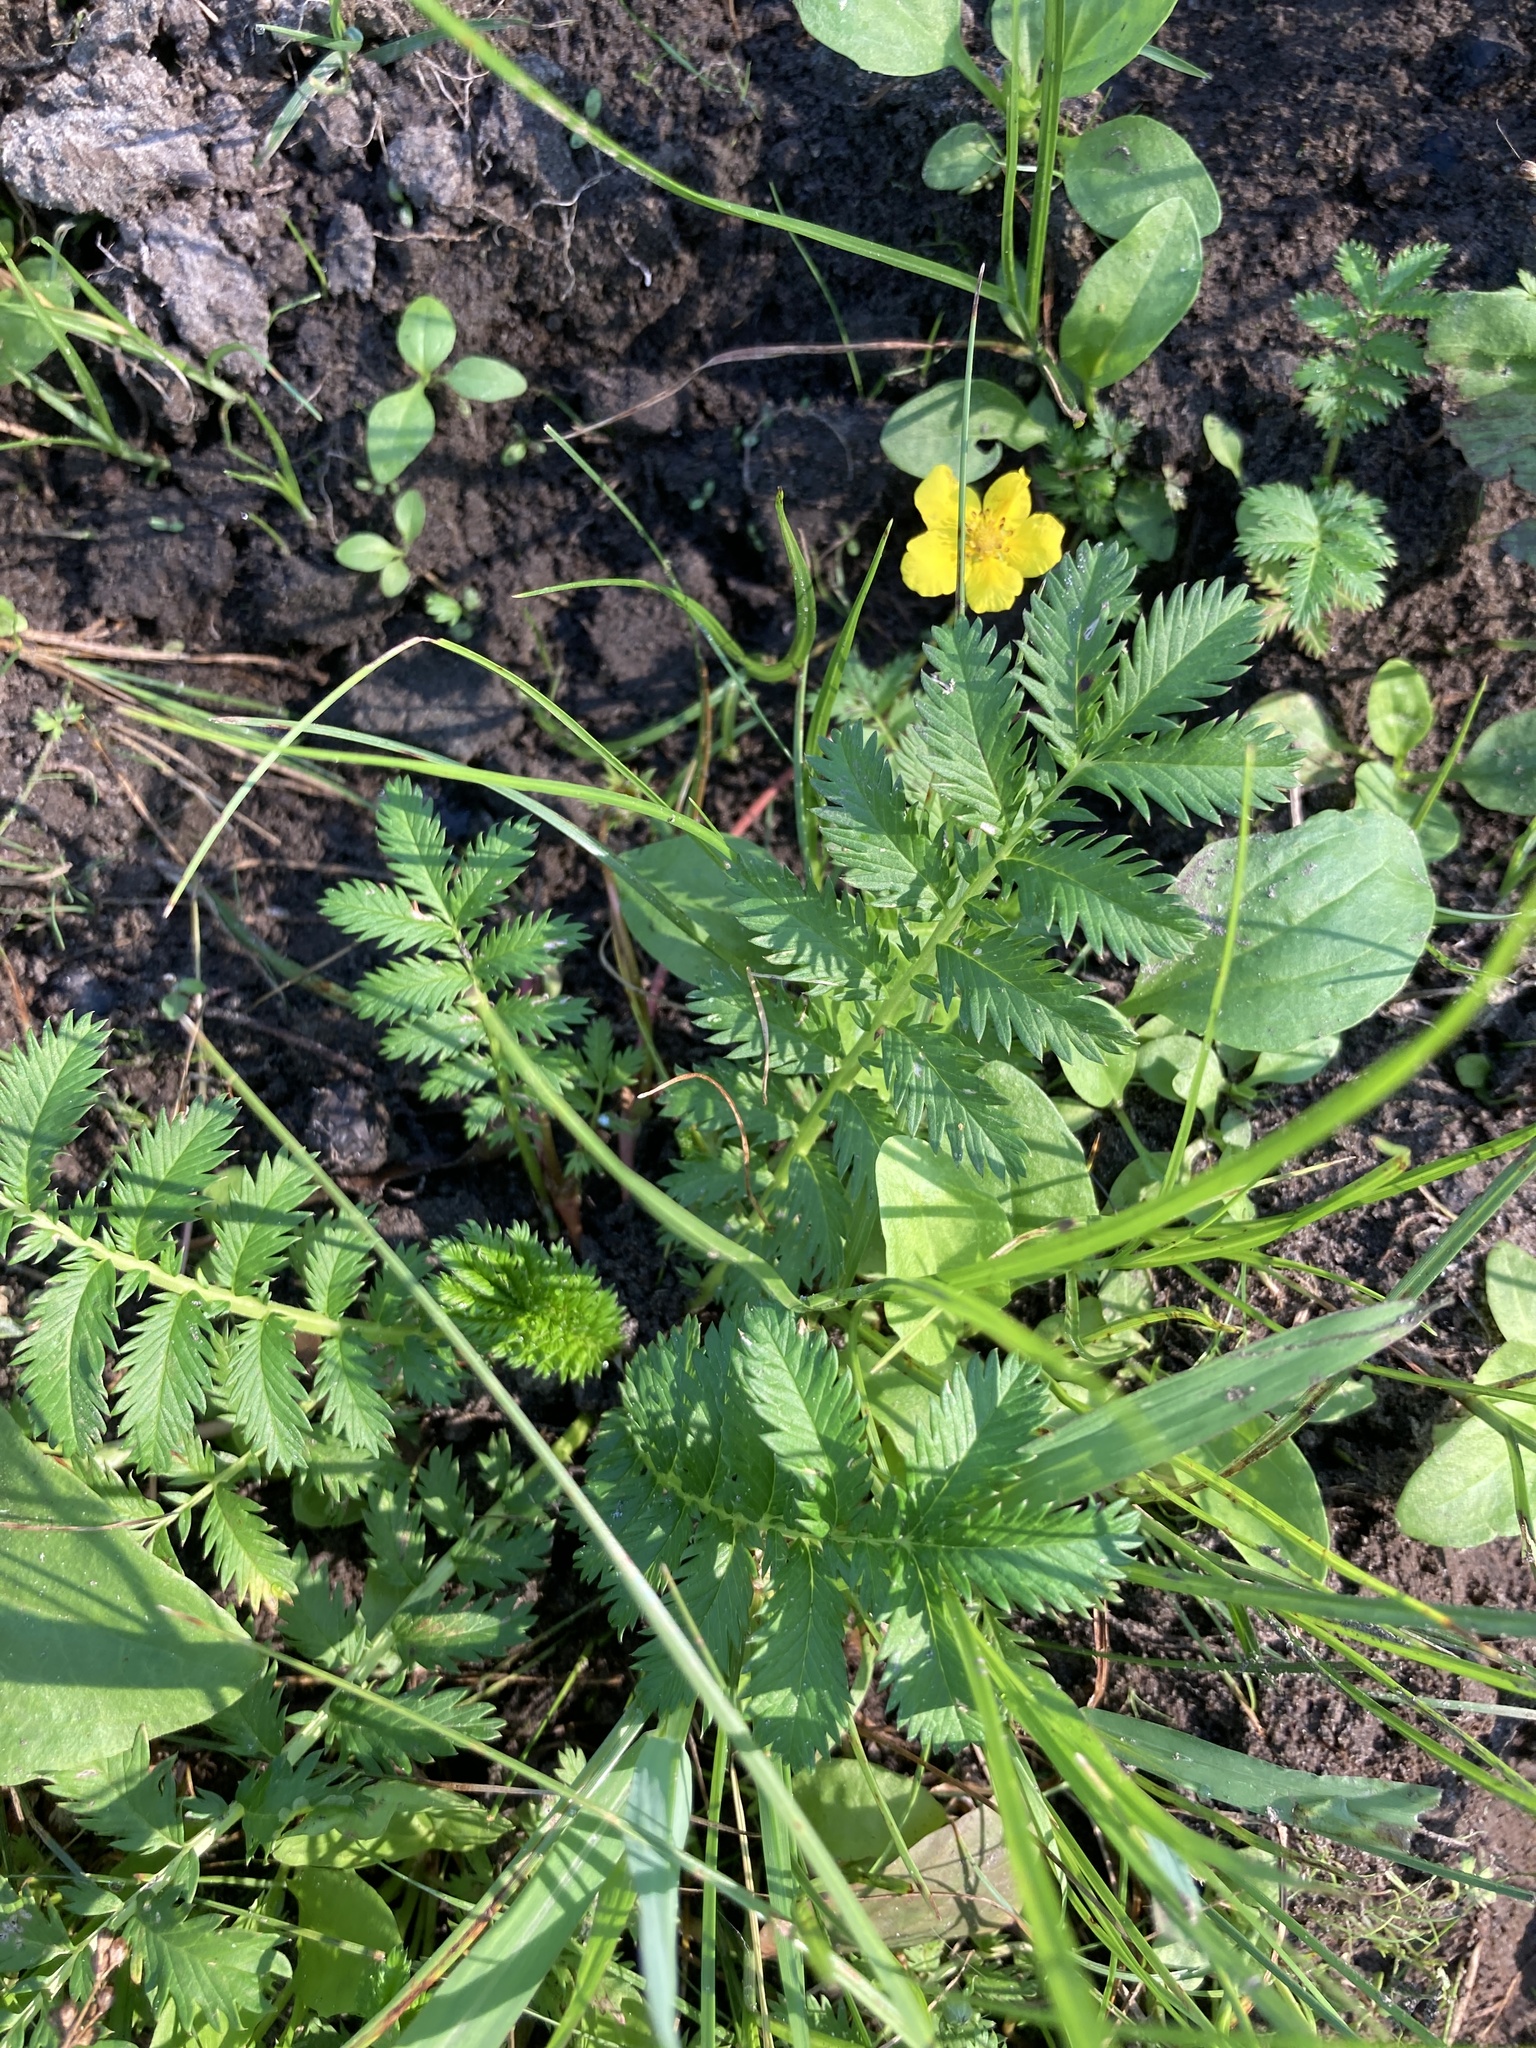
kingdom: Plantae
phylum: Tracheophyta
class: Magnoliopsida
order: Rosales
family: Rosaceae
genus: Argentina
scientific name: Argentina anserina
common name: Common silverweed
